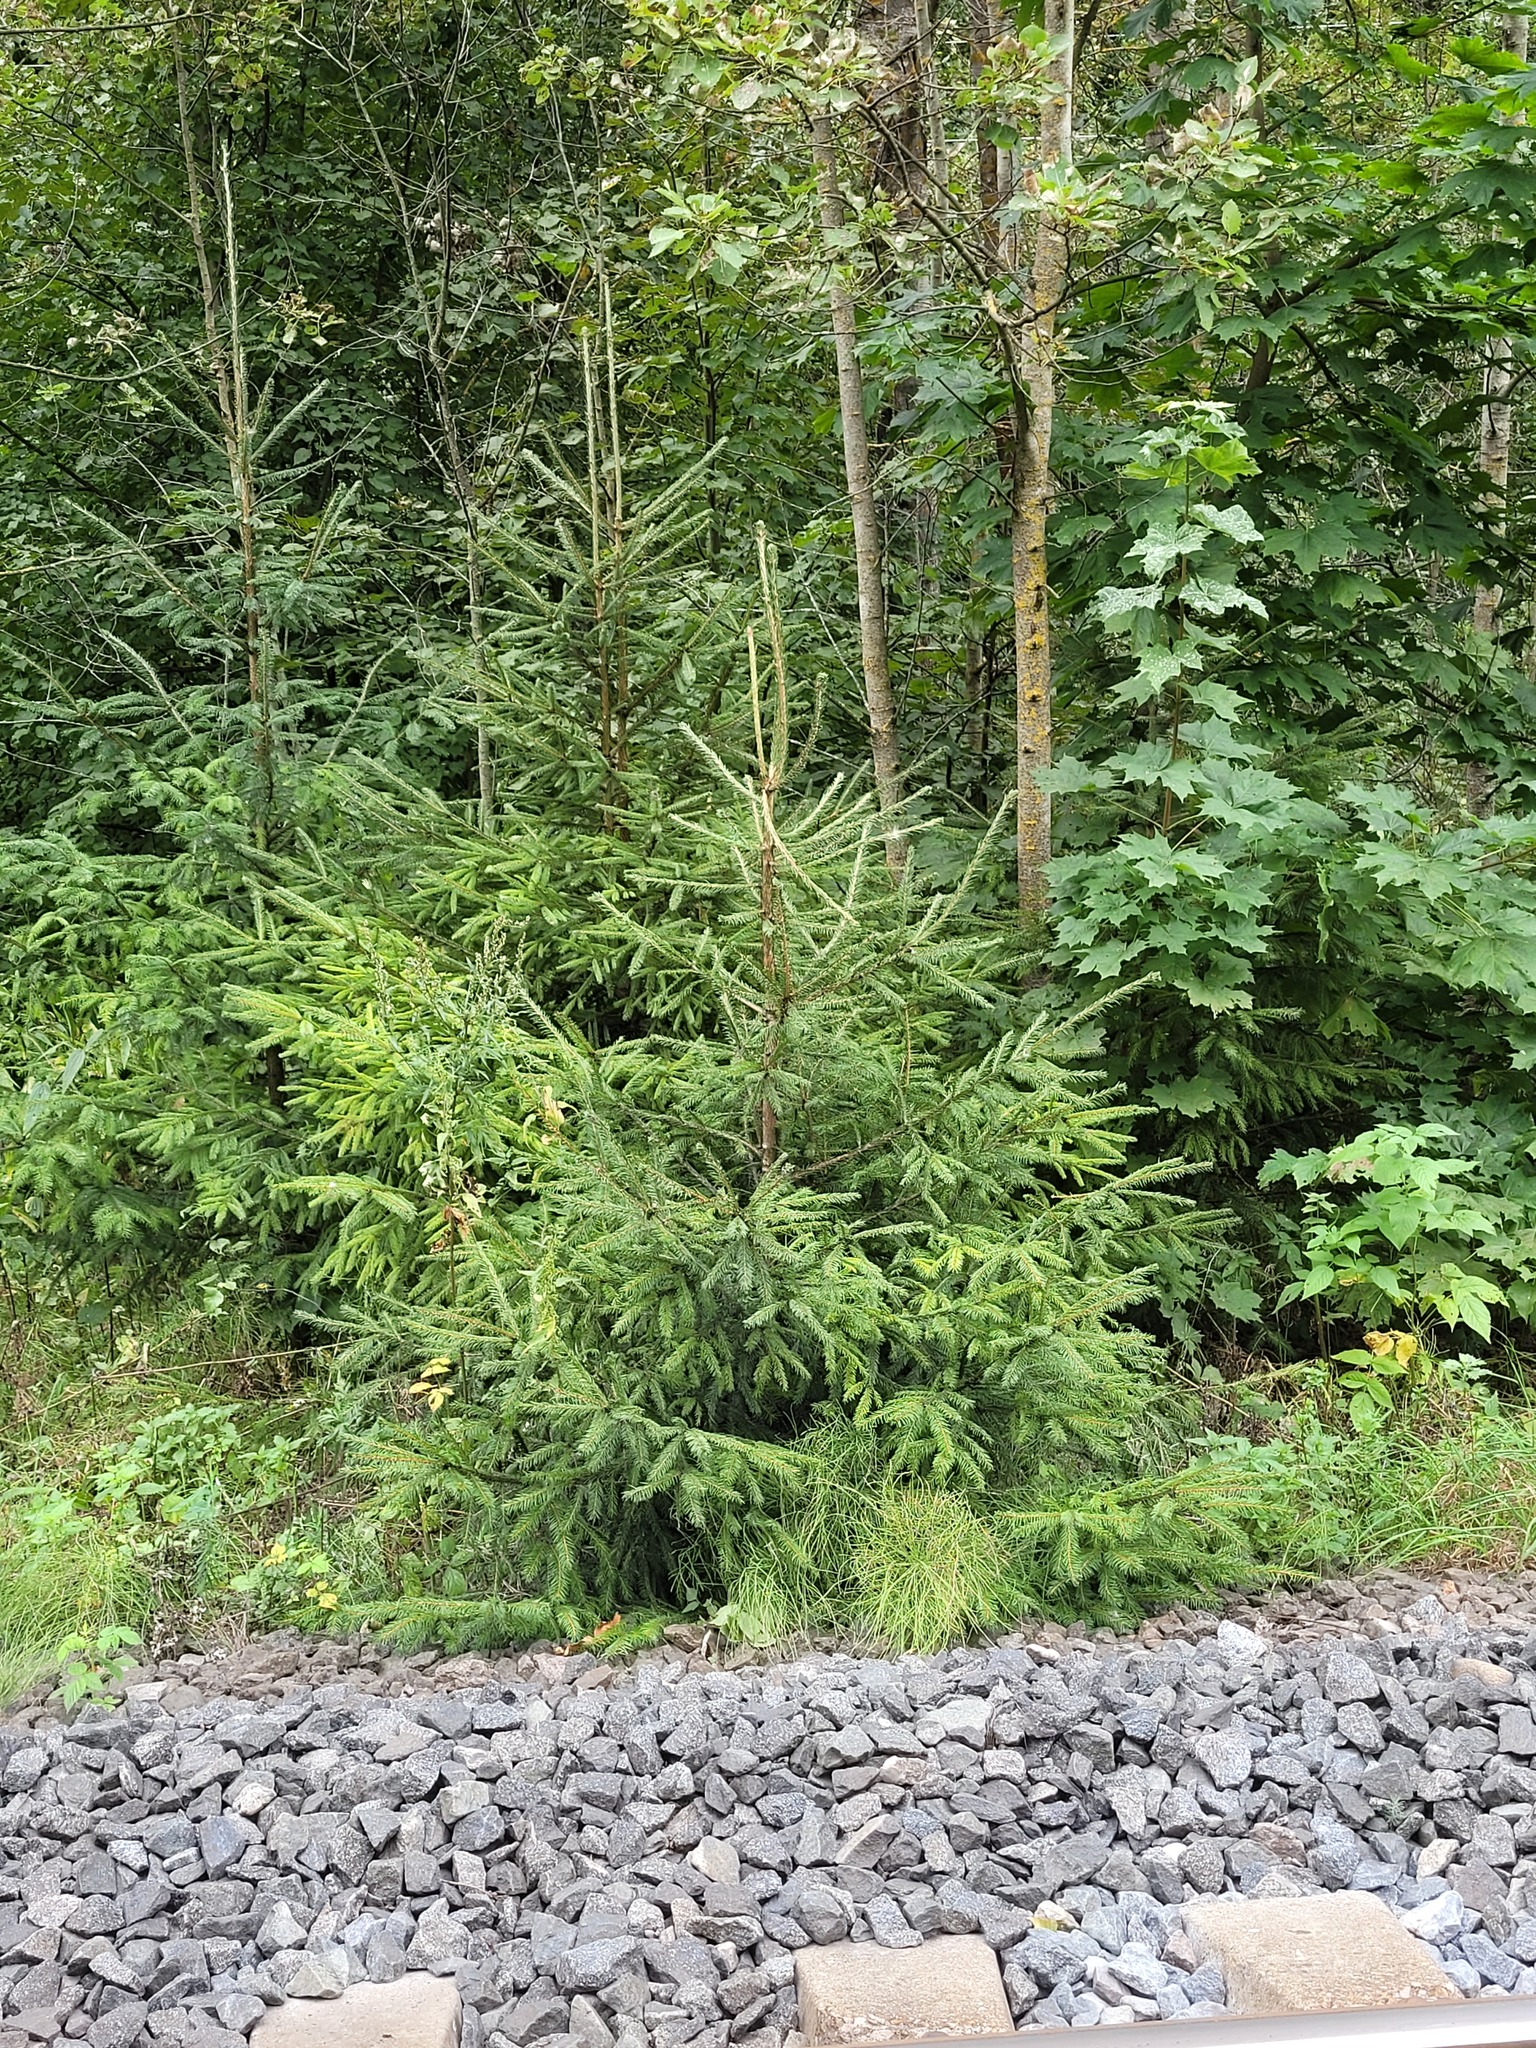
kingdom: Plantae
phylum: Tracheophyta
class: Pinopsida
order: Pinales
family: Pinaceae
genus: Picea
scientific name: Picea abies
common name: Norway spruce
